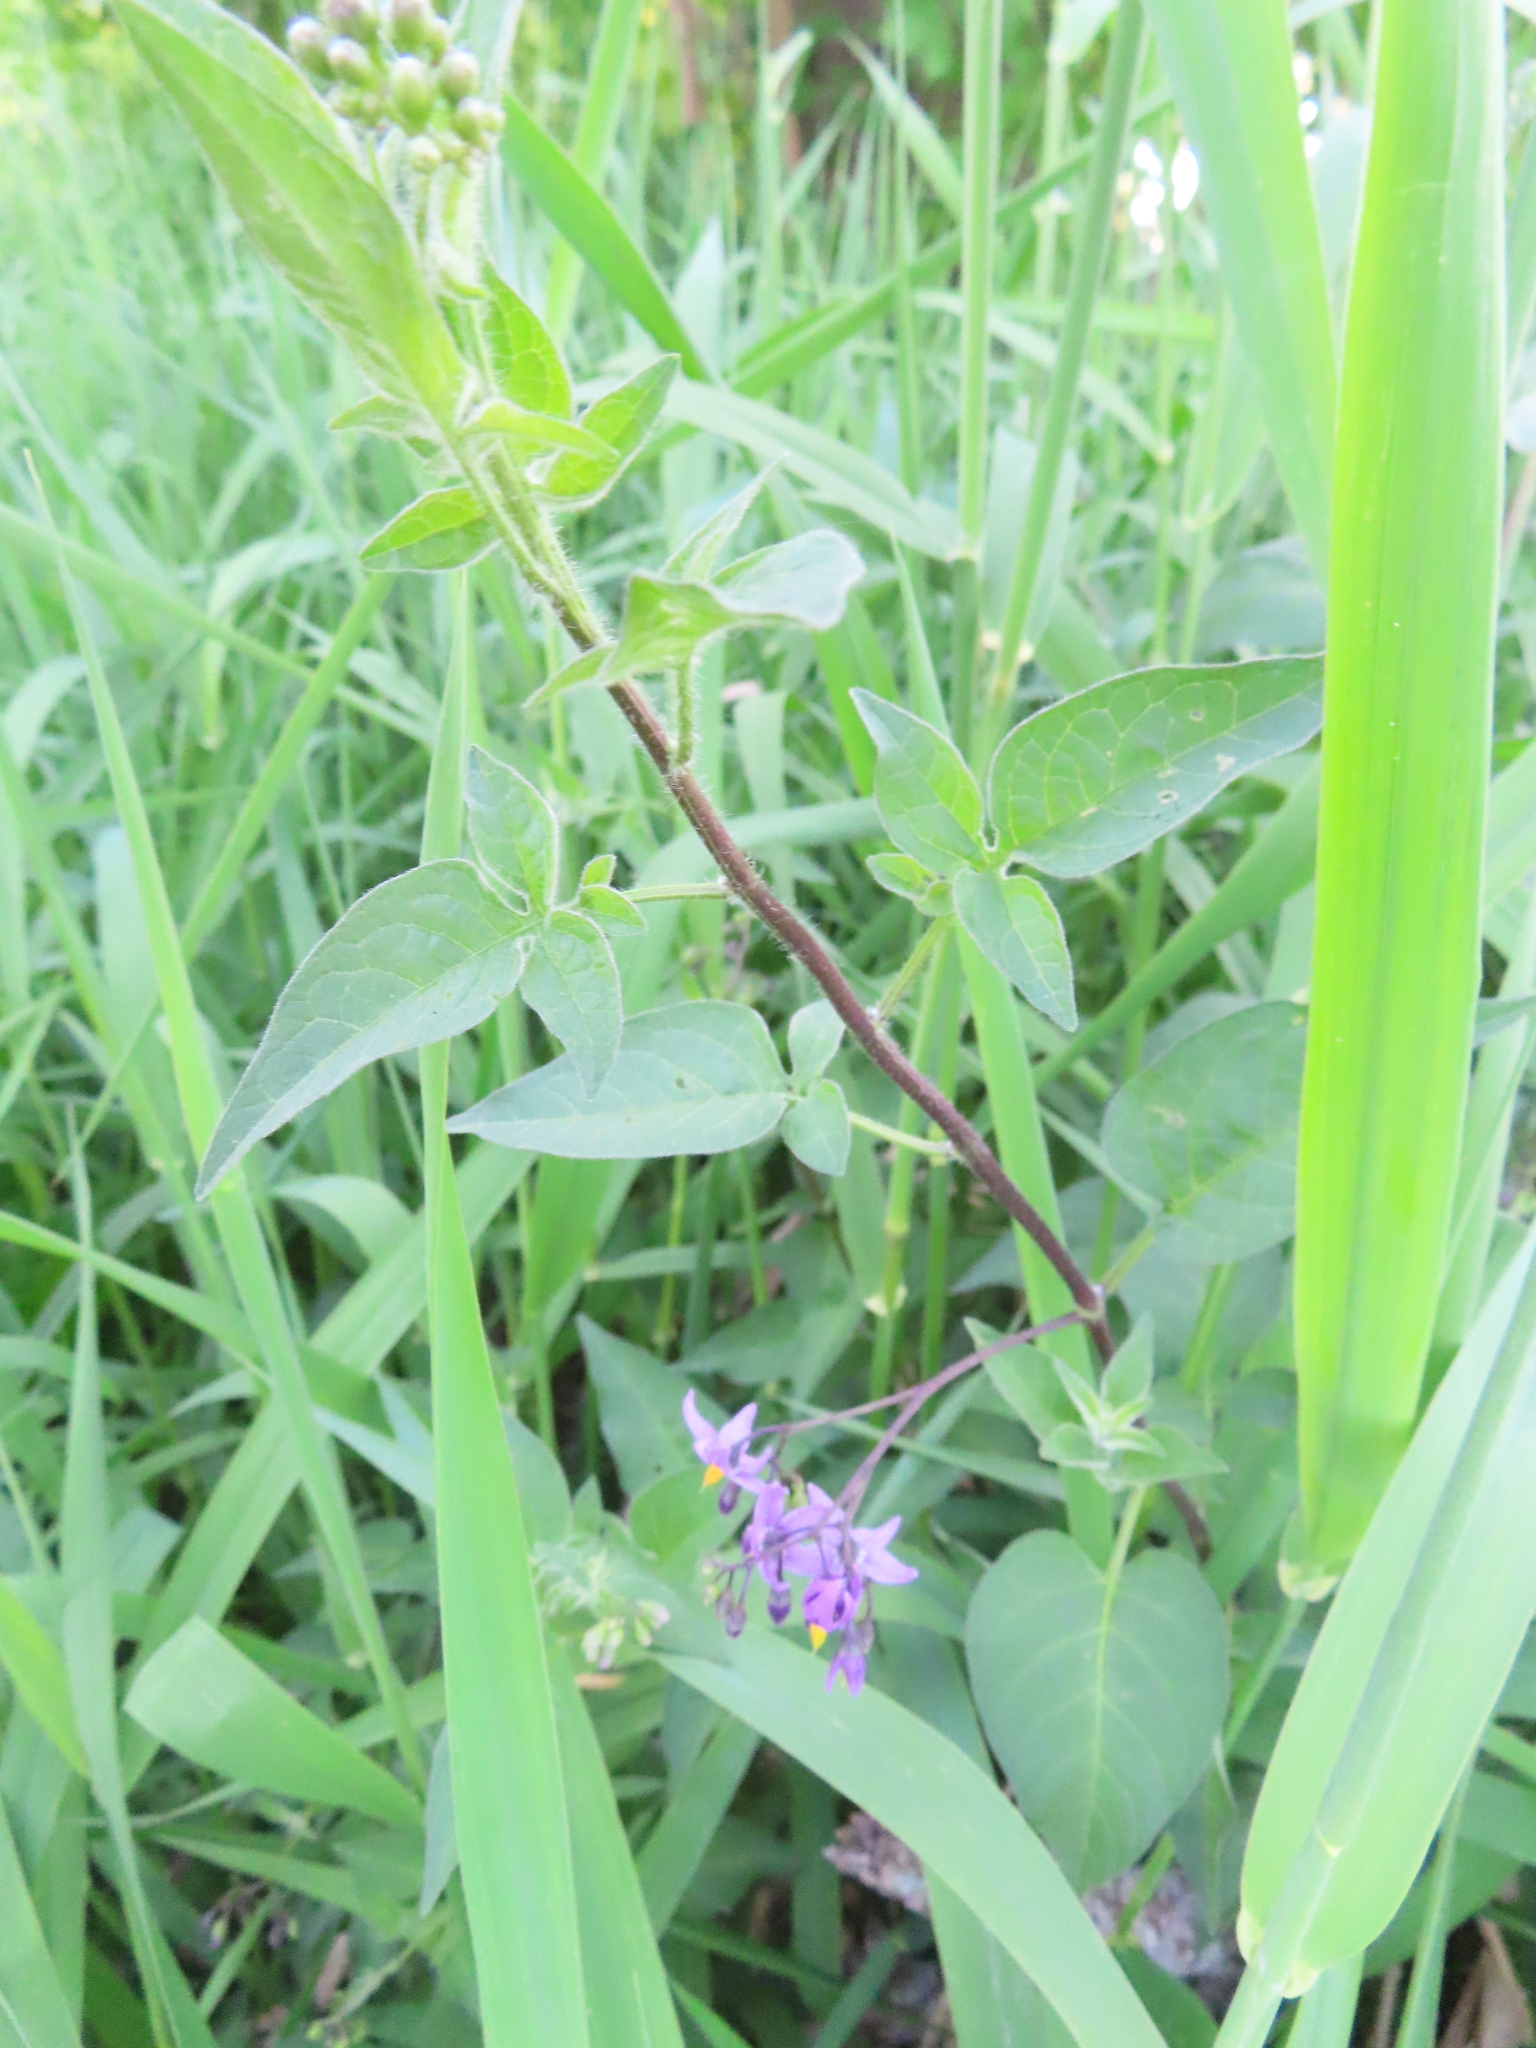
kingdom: Plantae
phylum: Tracheophyta
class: Magnoliopsida
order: Solanales
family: Solanaceae
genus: Solanum
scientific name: Solanum dulcamara
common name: Climbing nightshade
